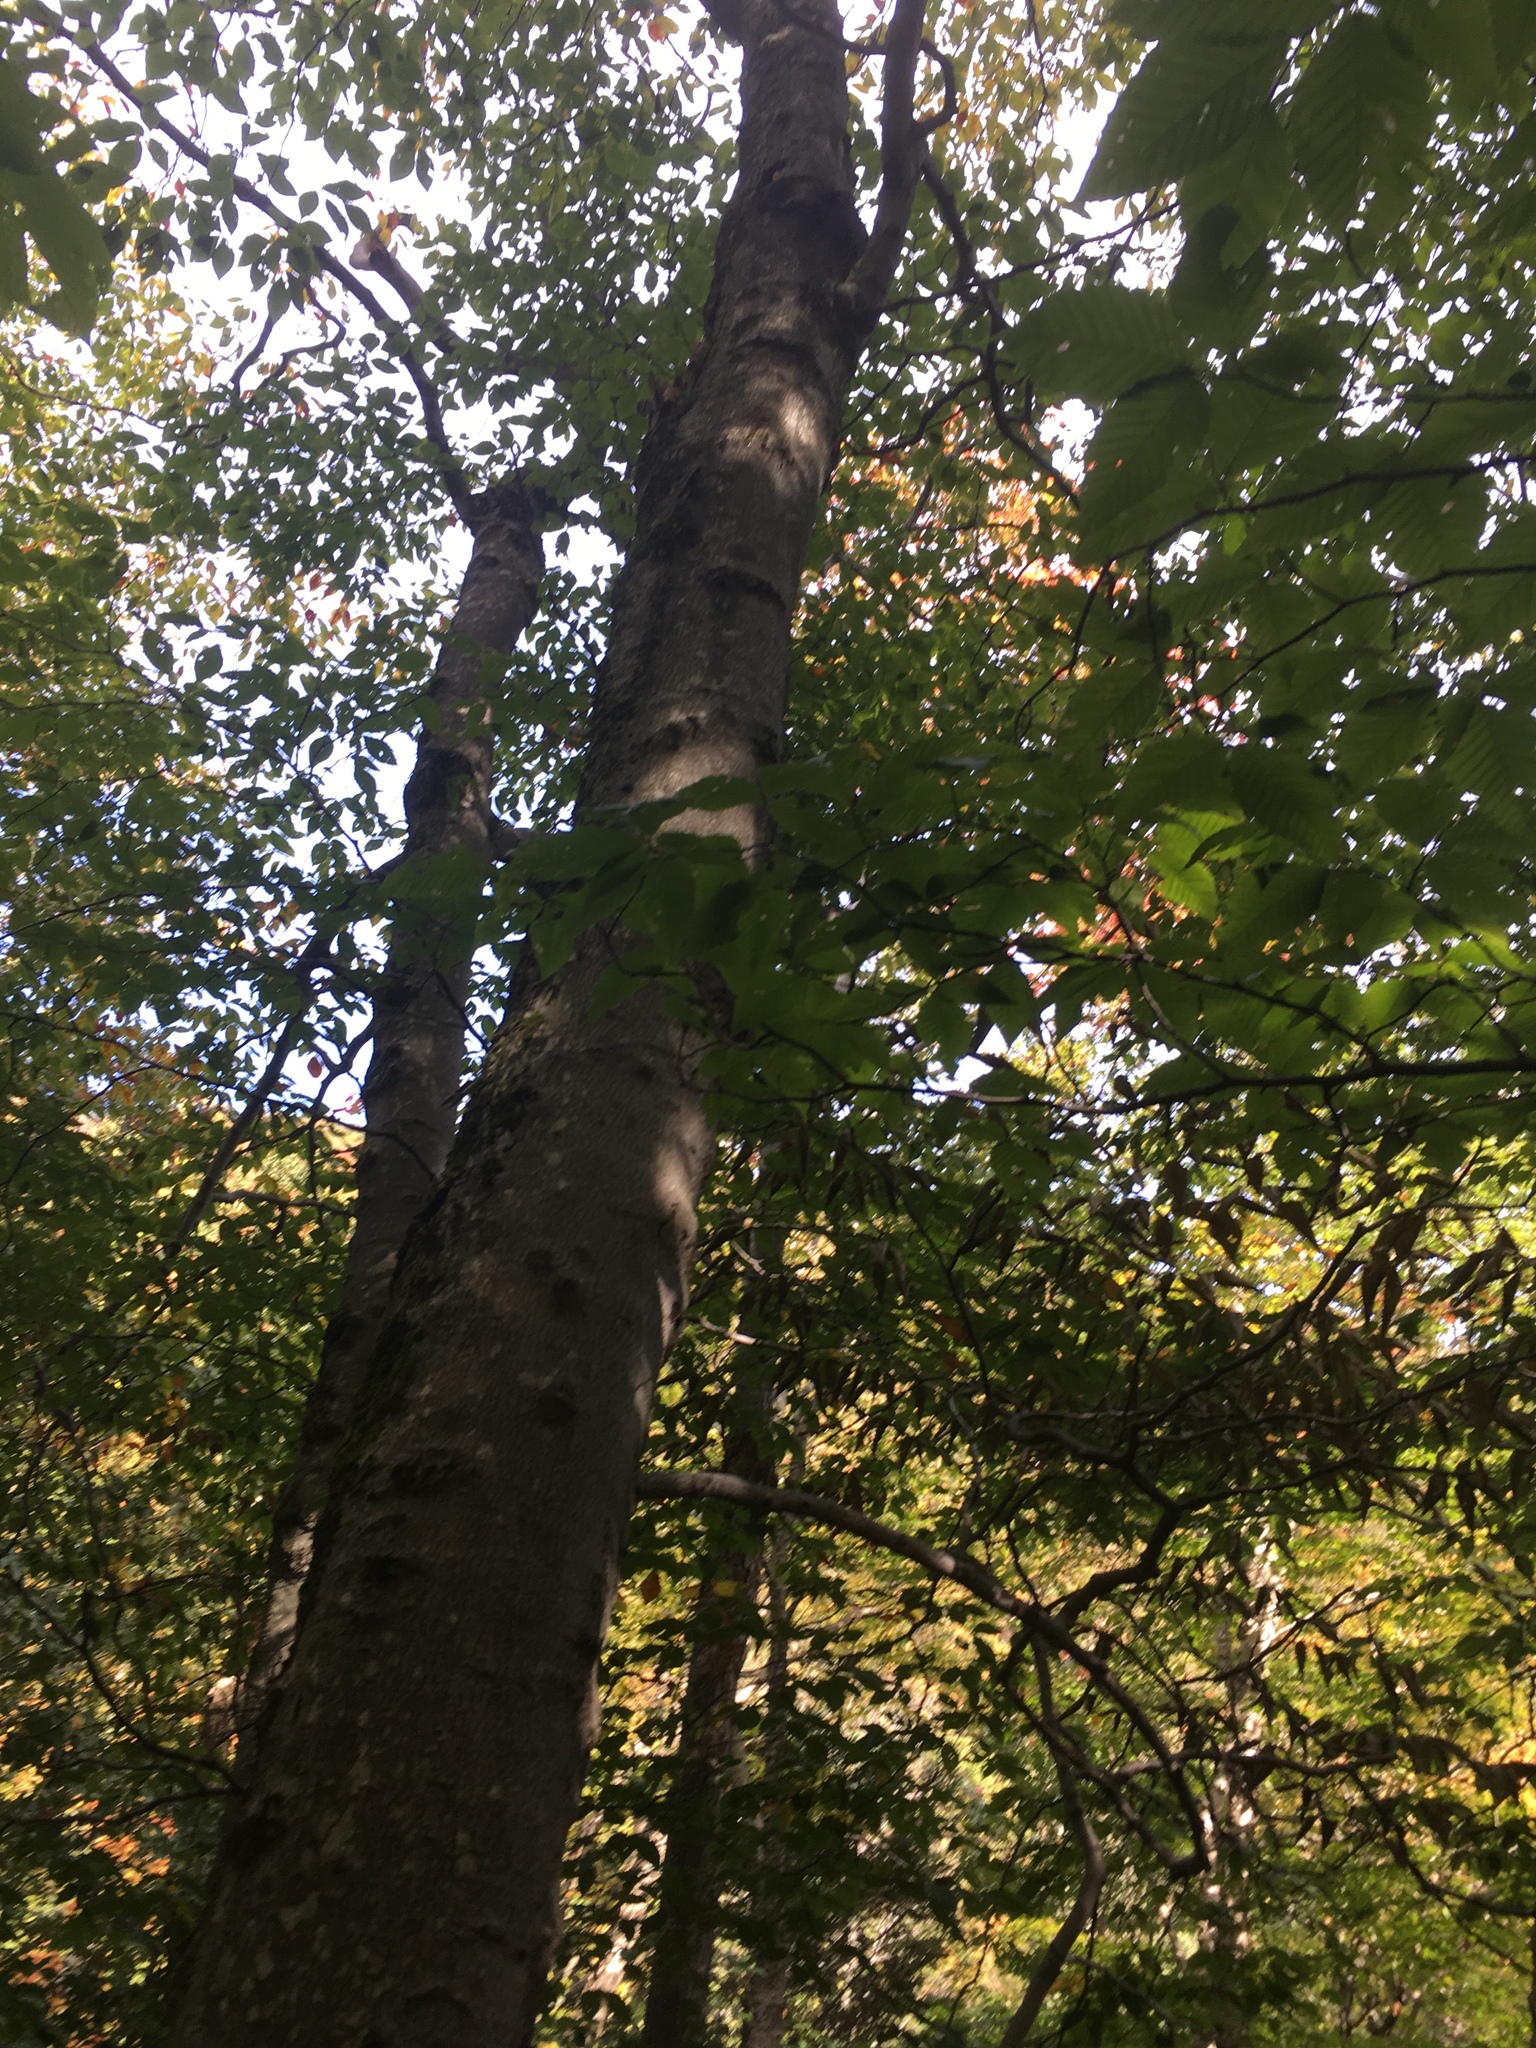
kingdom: Plantae
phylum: Tracheophyta
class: Magnoliopsida
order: Fagales
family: Fagaceae
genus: Fagus
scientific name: Fagus grandifolia
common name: American beech
